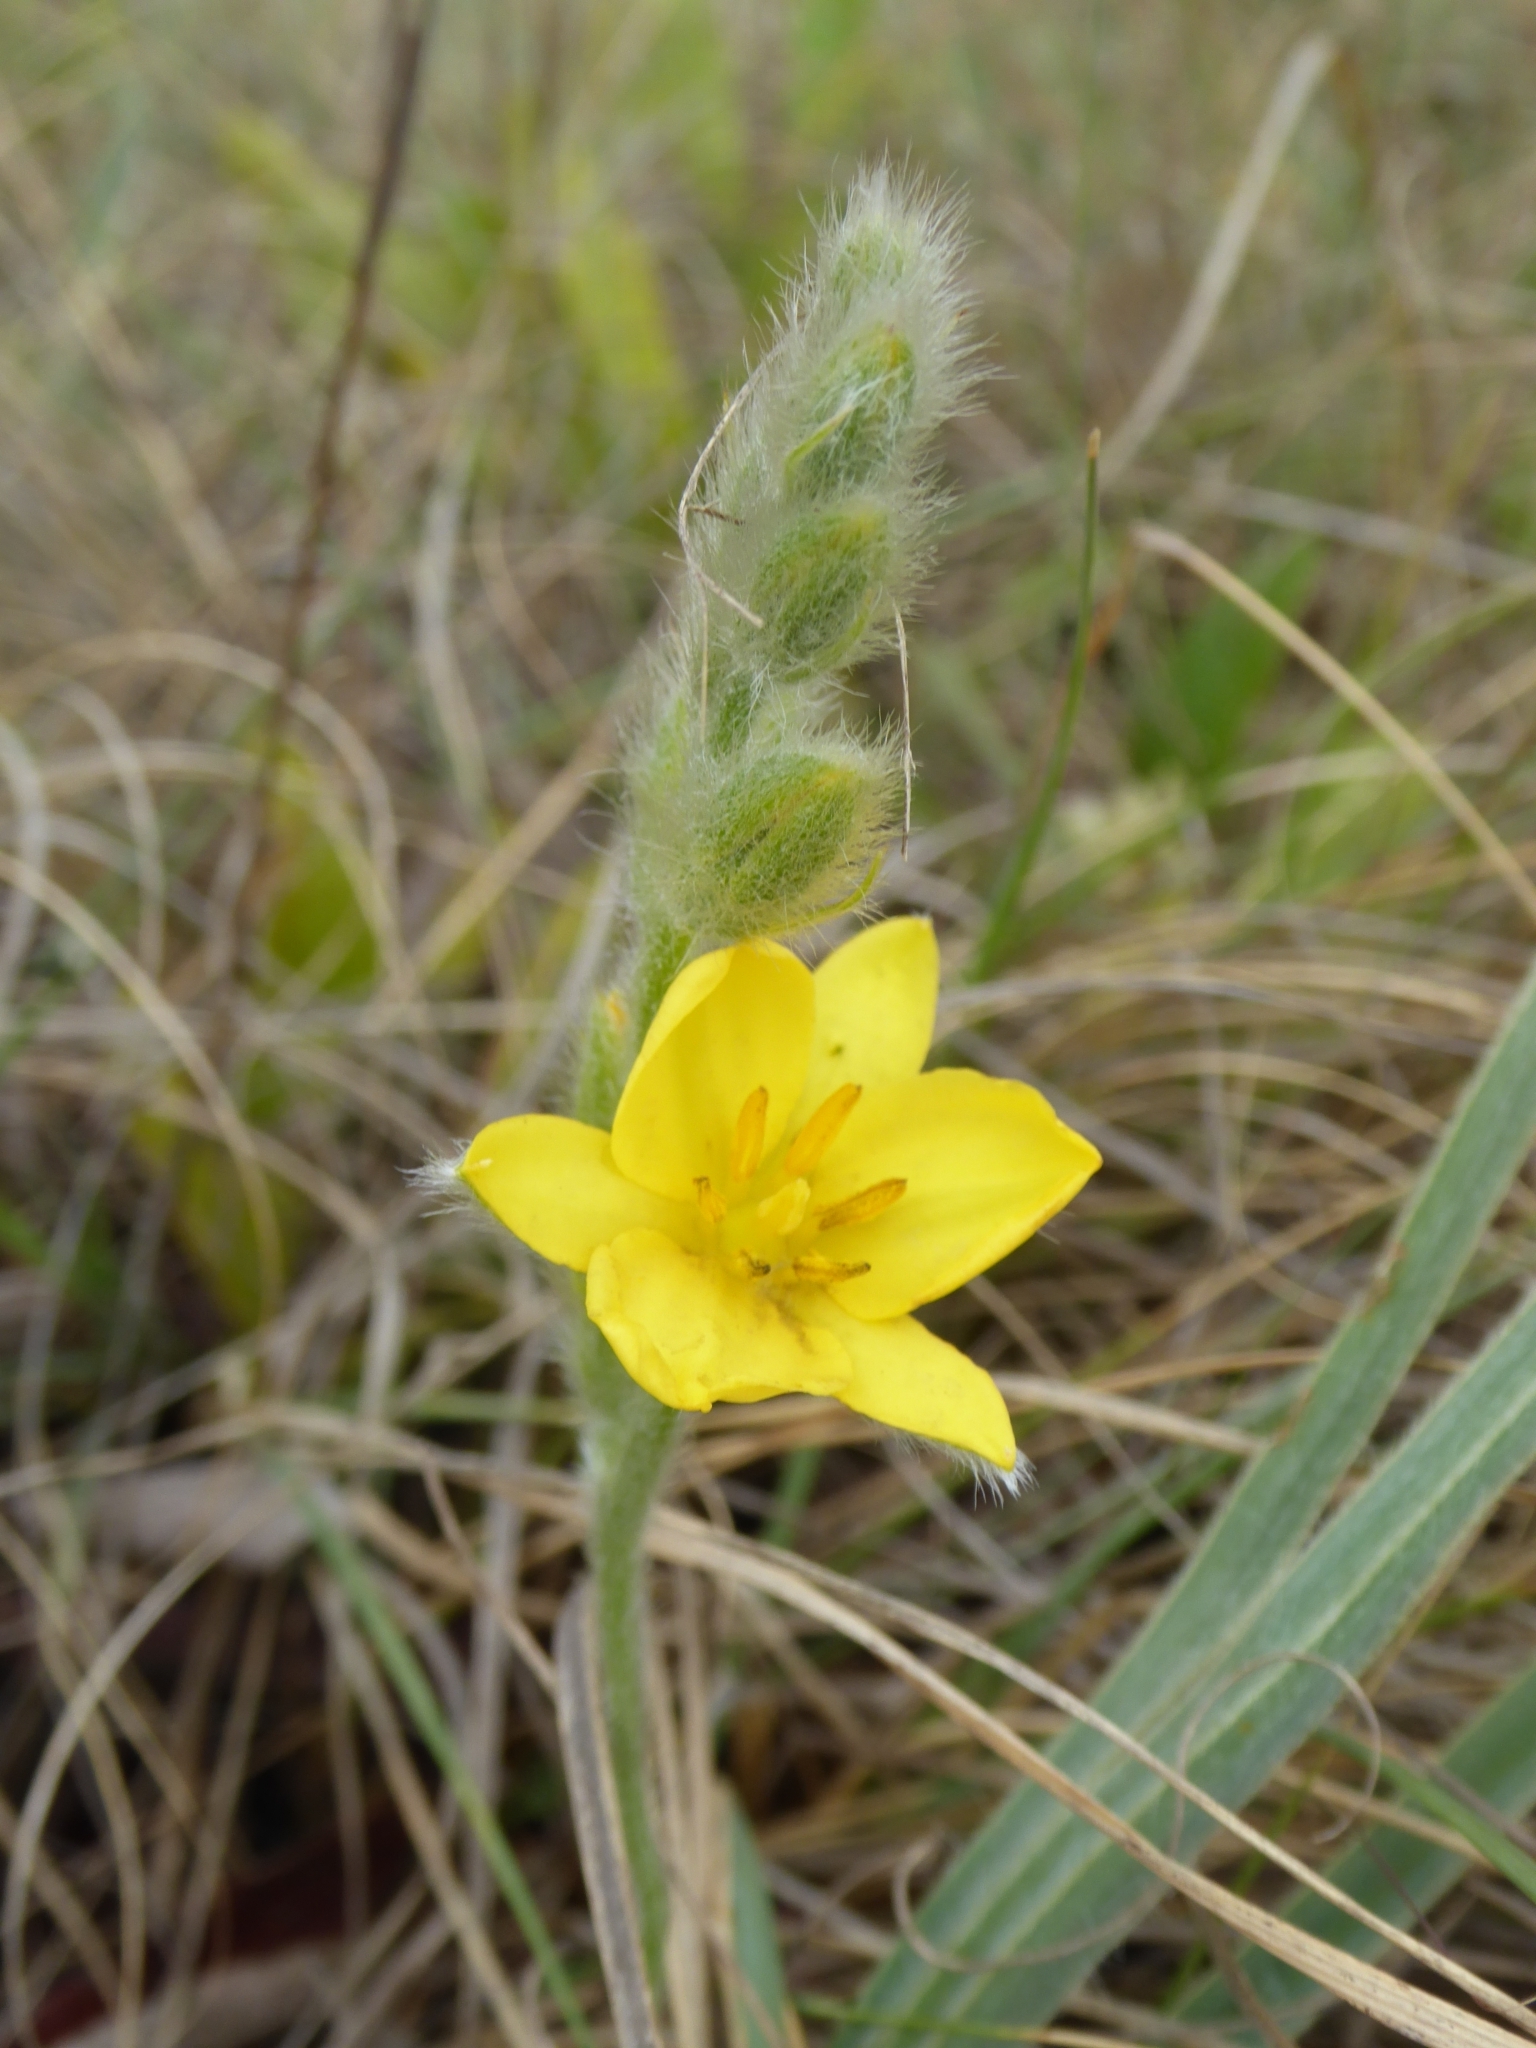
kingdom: Plantae
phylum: Tracheophyta
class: Liliopsida
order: Asparagales
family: Hypoxidaceae
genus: Hypoxis
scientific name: Hypoxis rigidula
